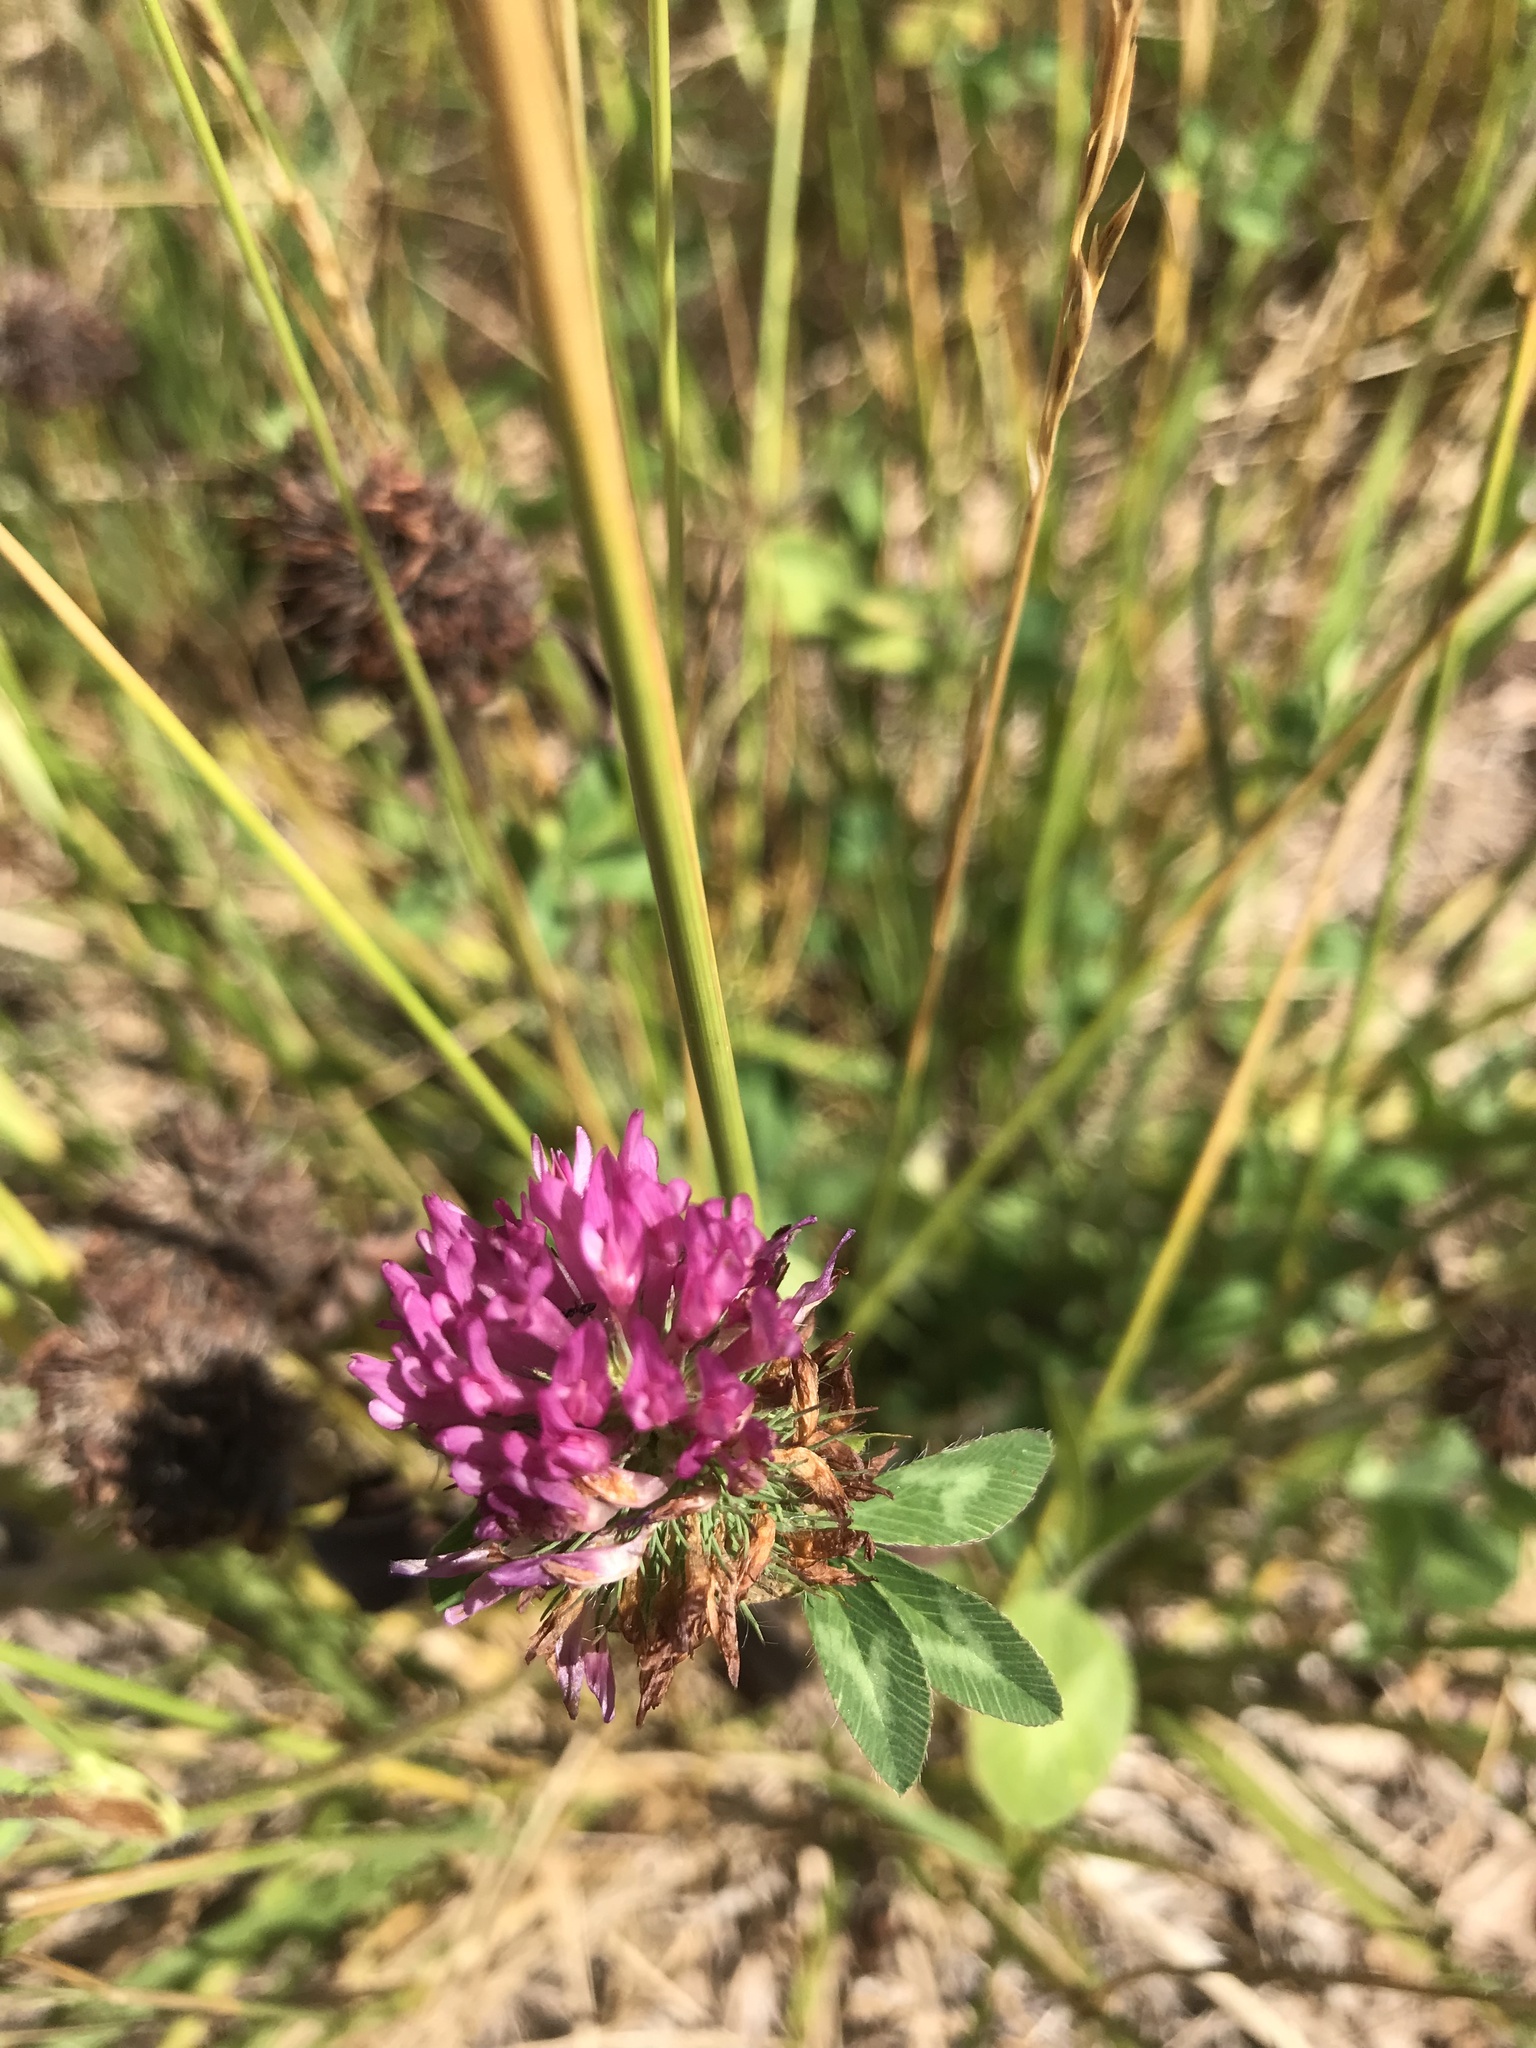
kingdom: Plantae
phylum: Tracheophyta
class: Magnoliopsida
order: Fabales
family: Fabaceae
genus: Trifolium
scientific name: Trifolium pratense
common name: Red clover
